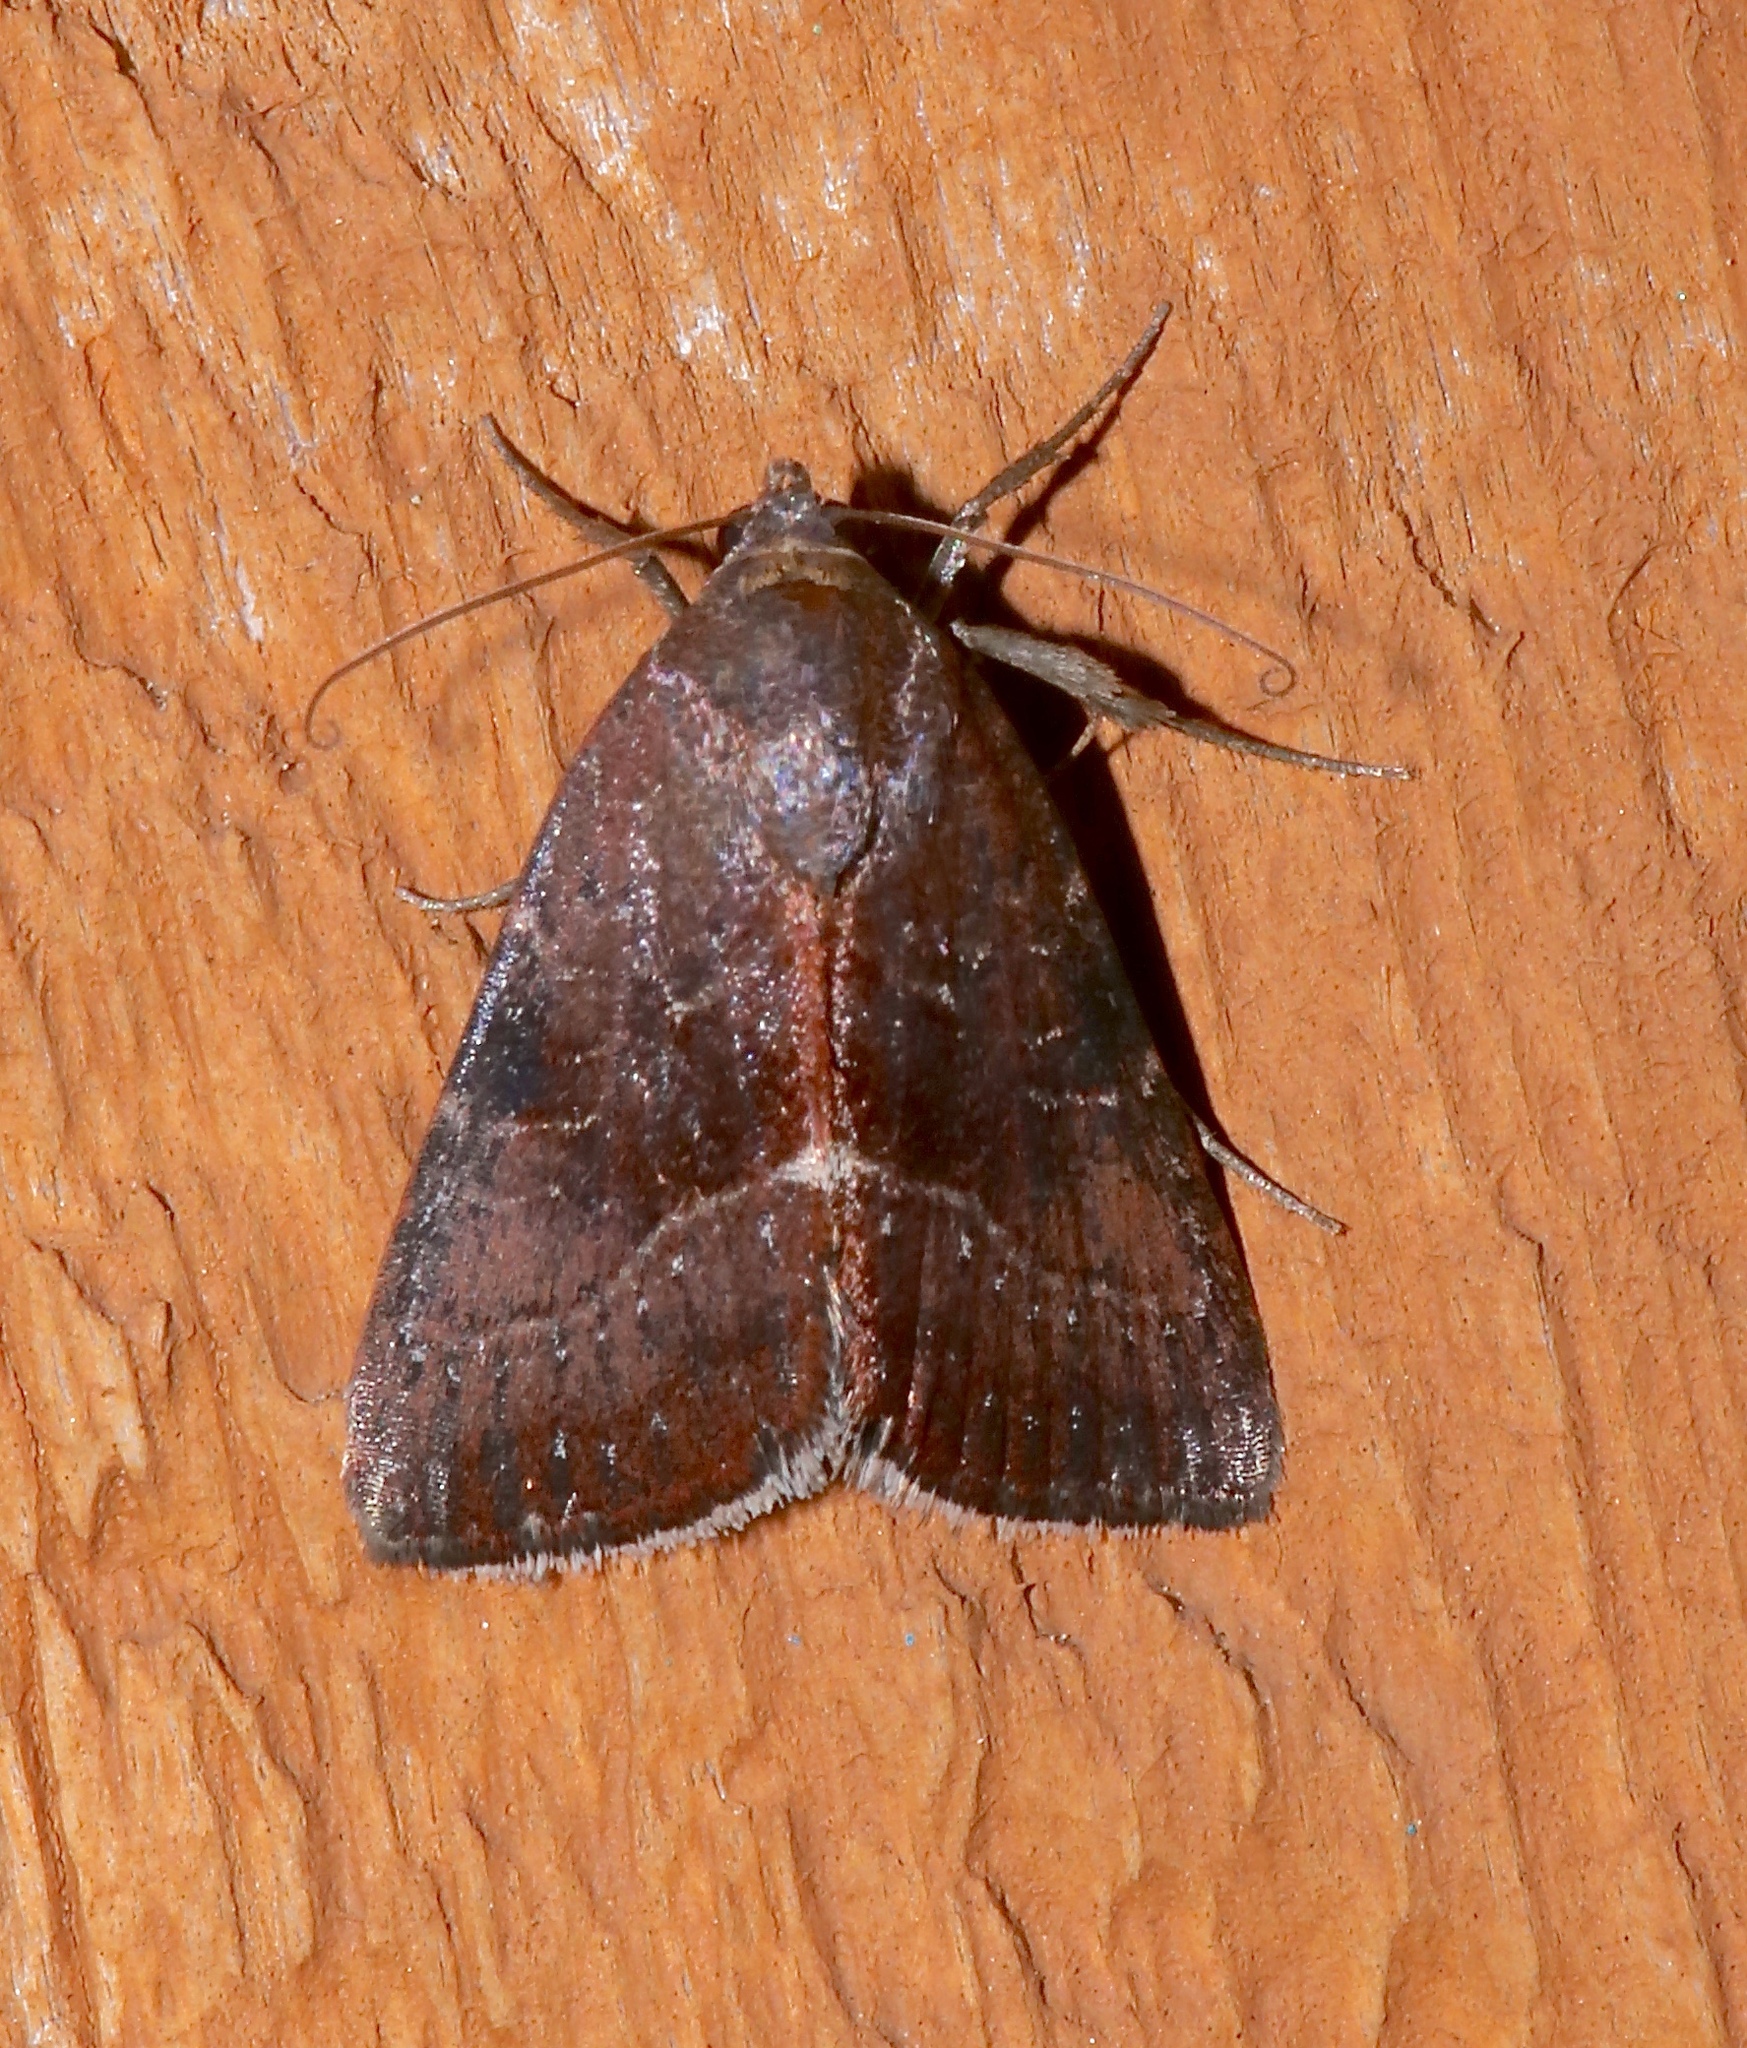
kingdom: Animalia
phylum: Arthropoda
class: Insecta
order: Lepidoptera
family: Noctuidae
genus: Galgula
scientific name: Galgula partita
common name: Wedgeling
